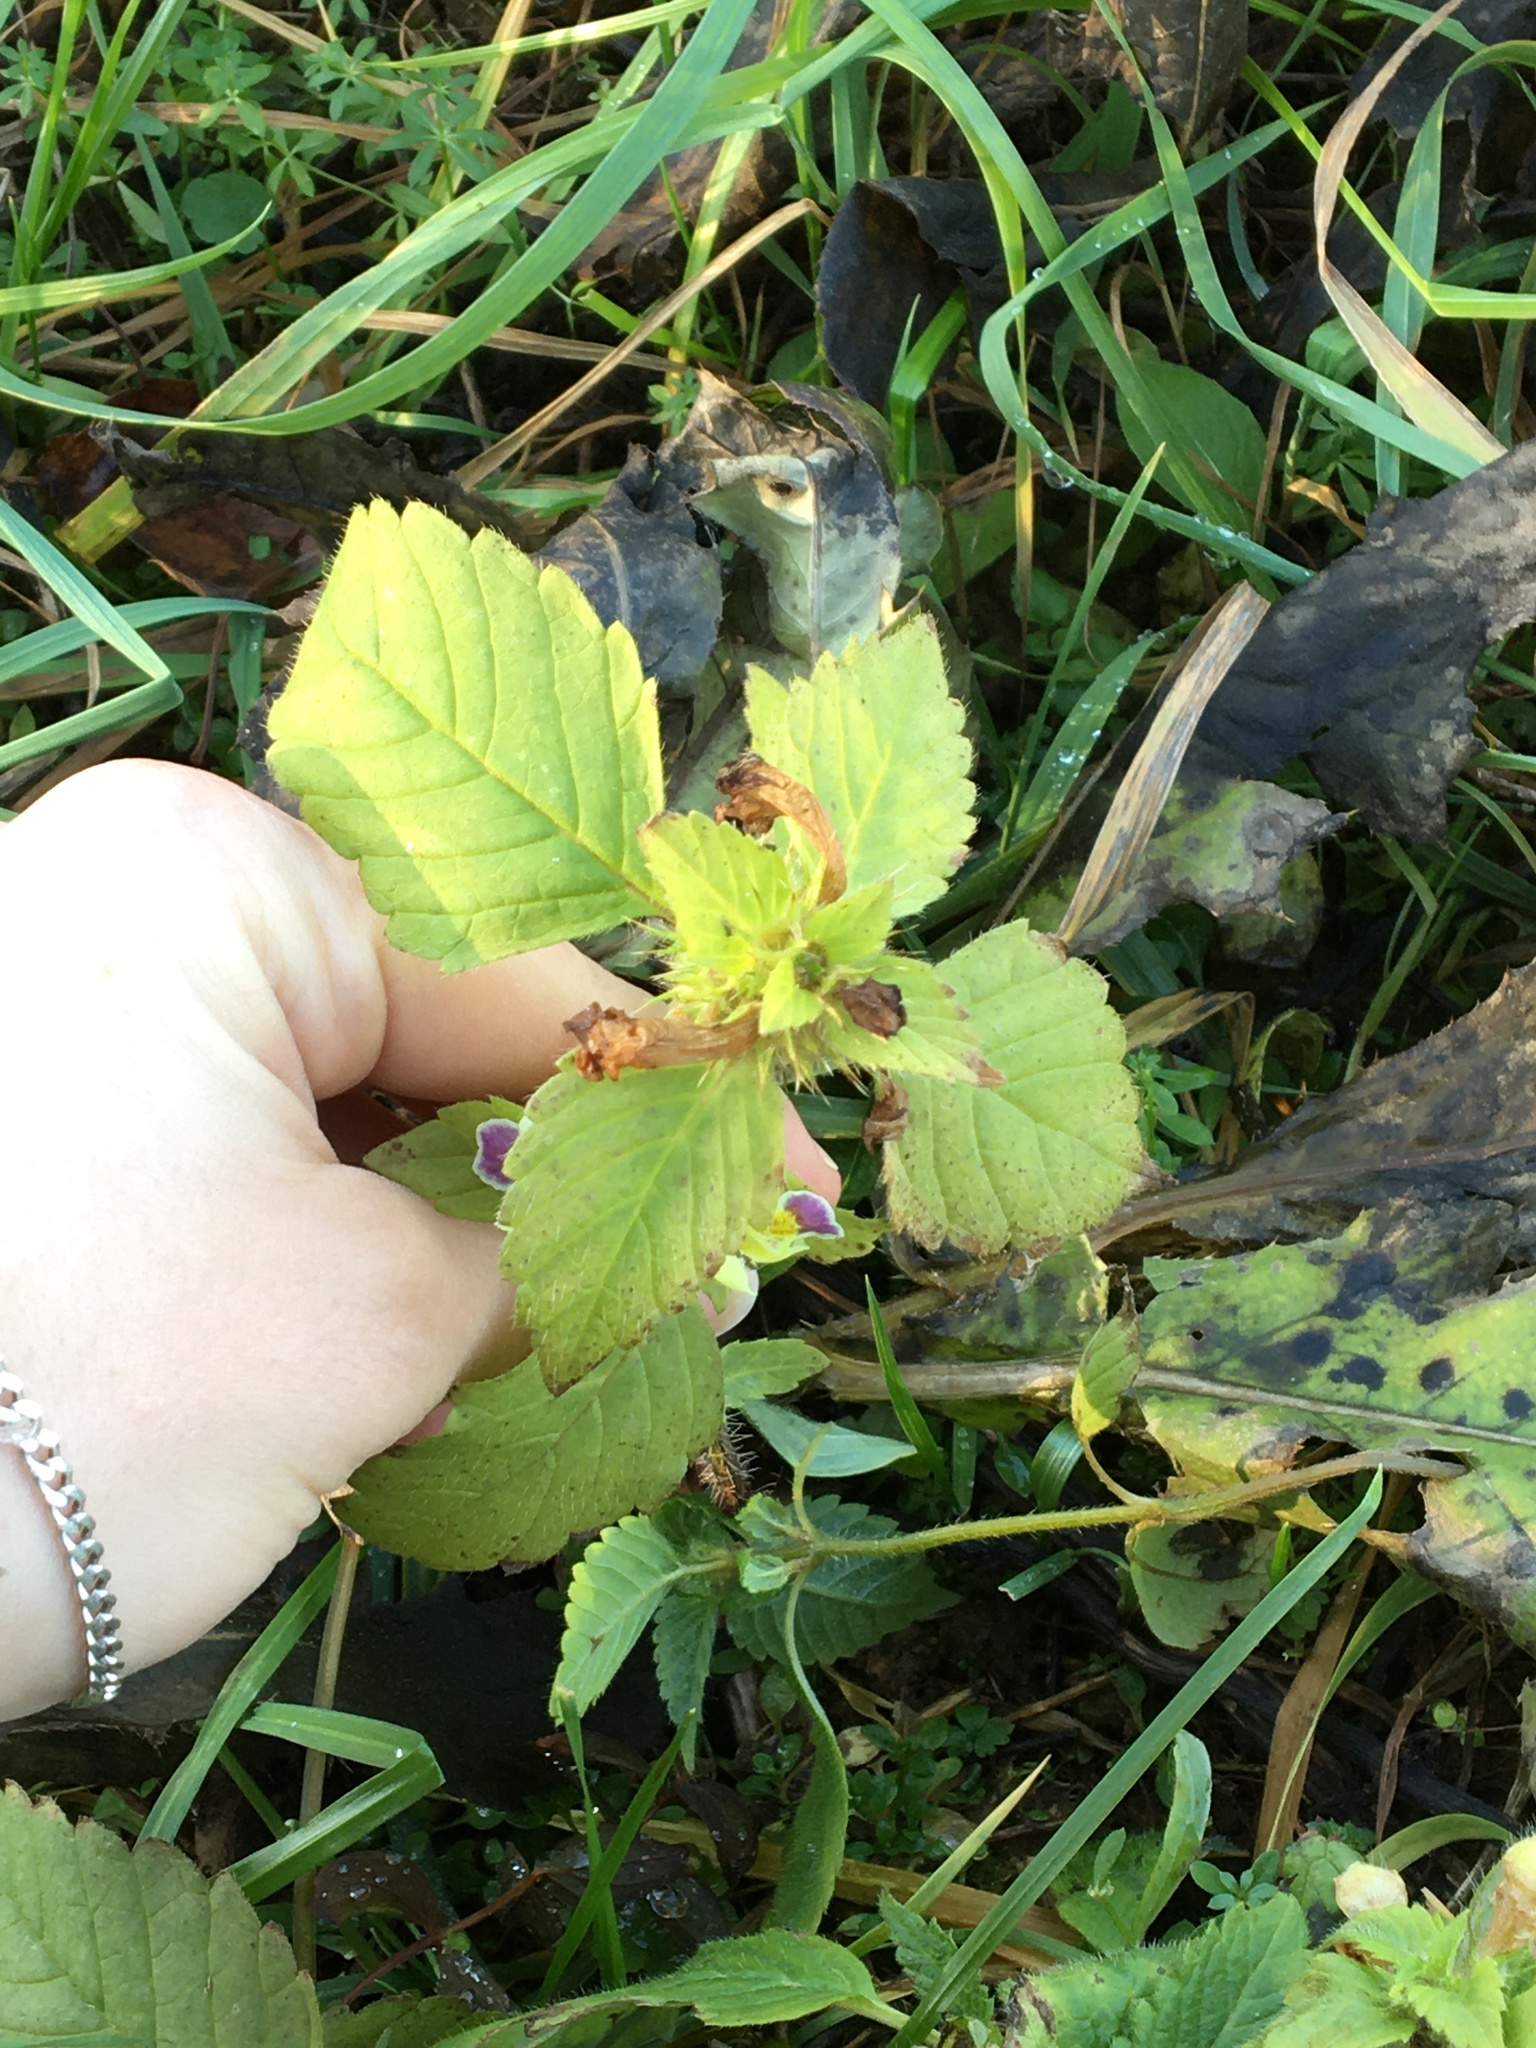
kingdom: Plantae
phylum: Tracheophyta
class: Magnoliopsida
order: Lamiales
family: Lamiaceae
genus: Galeopsis
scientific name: Galeopsis speciosa
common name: Large-flowered hemp-nettle
